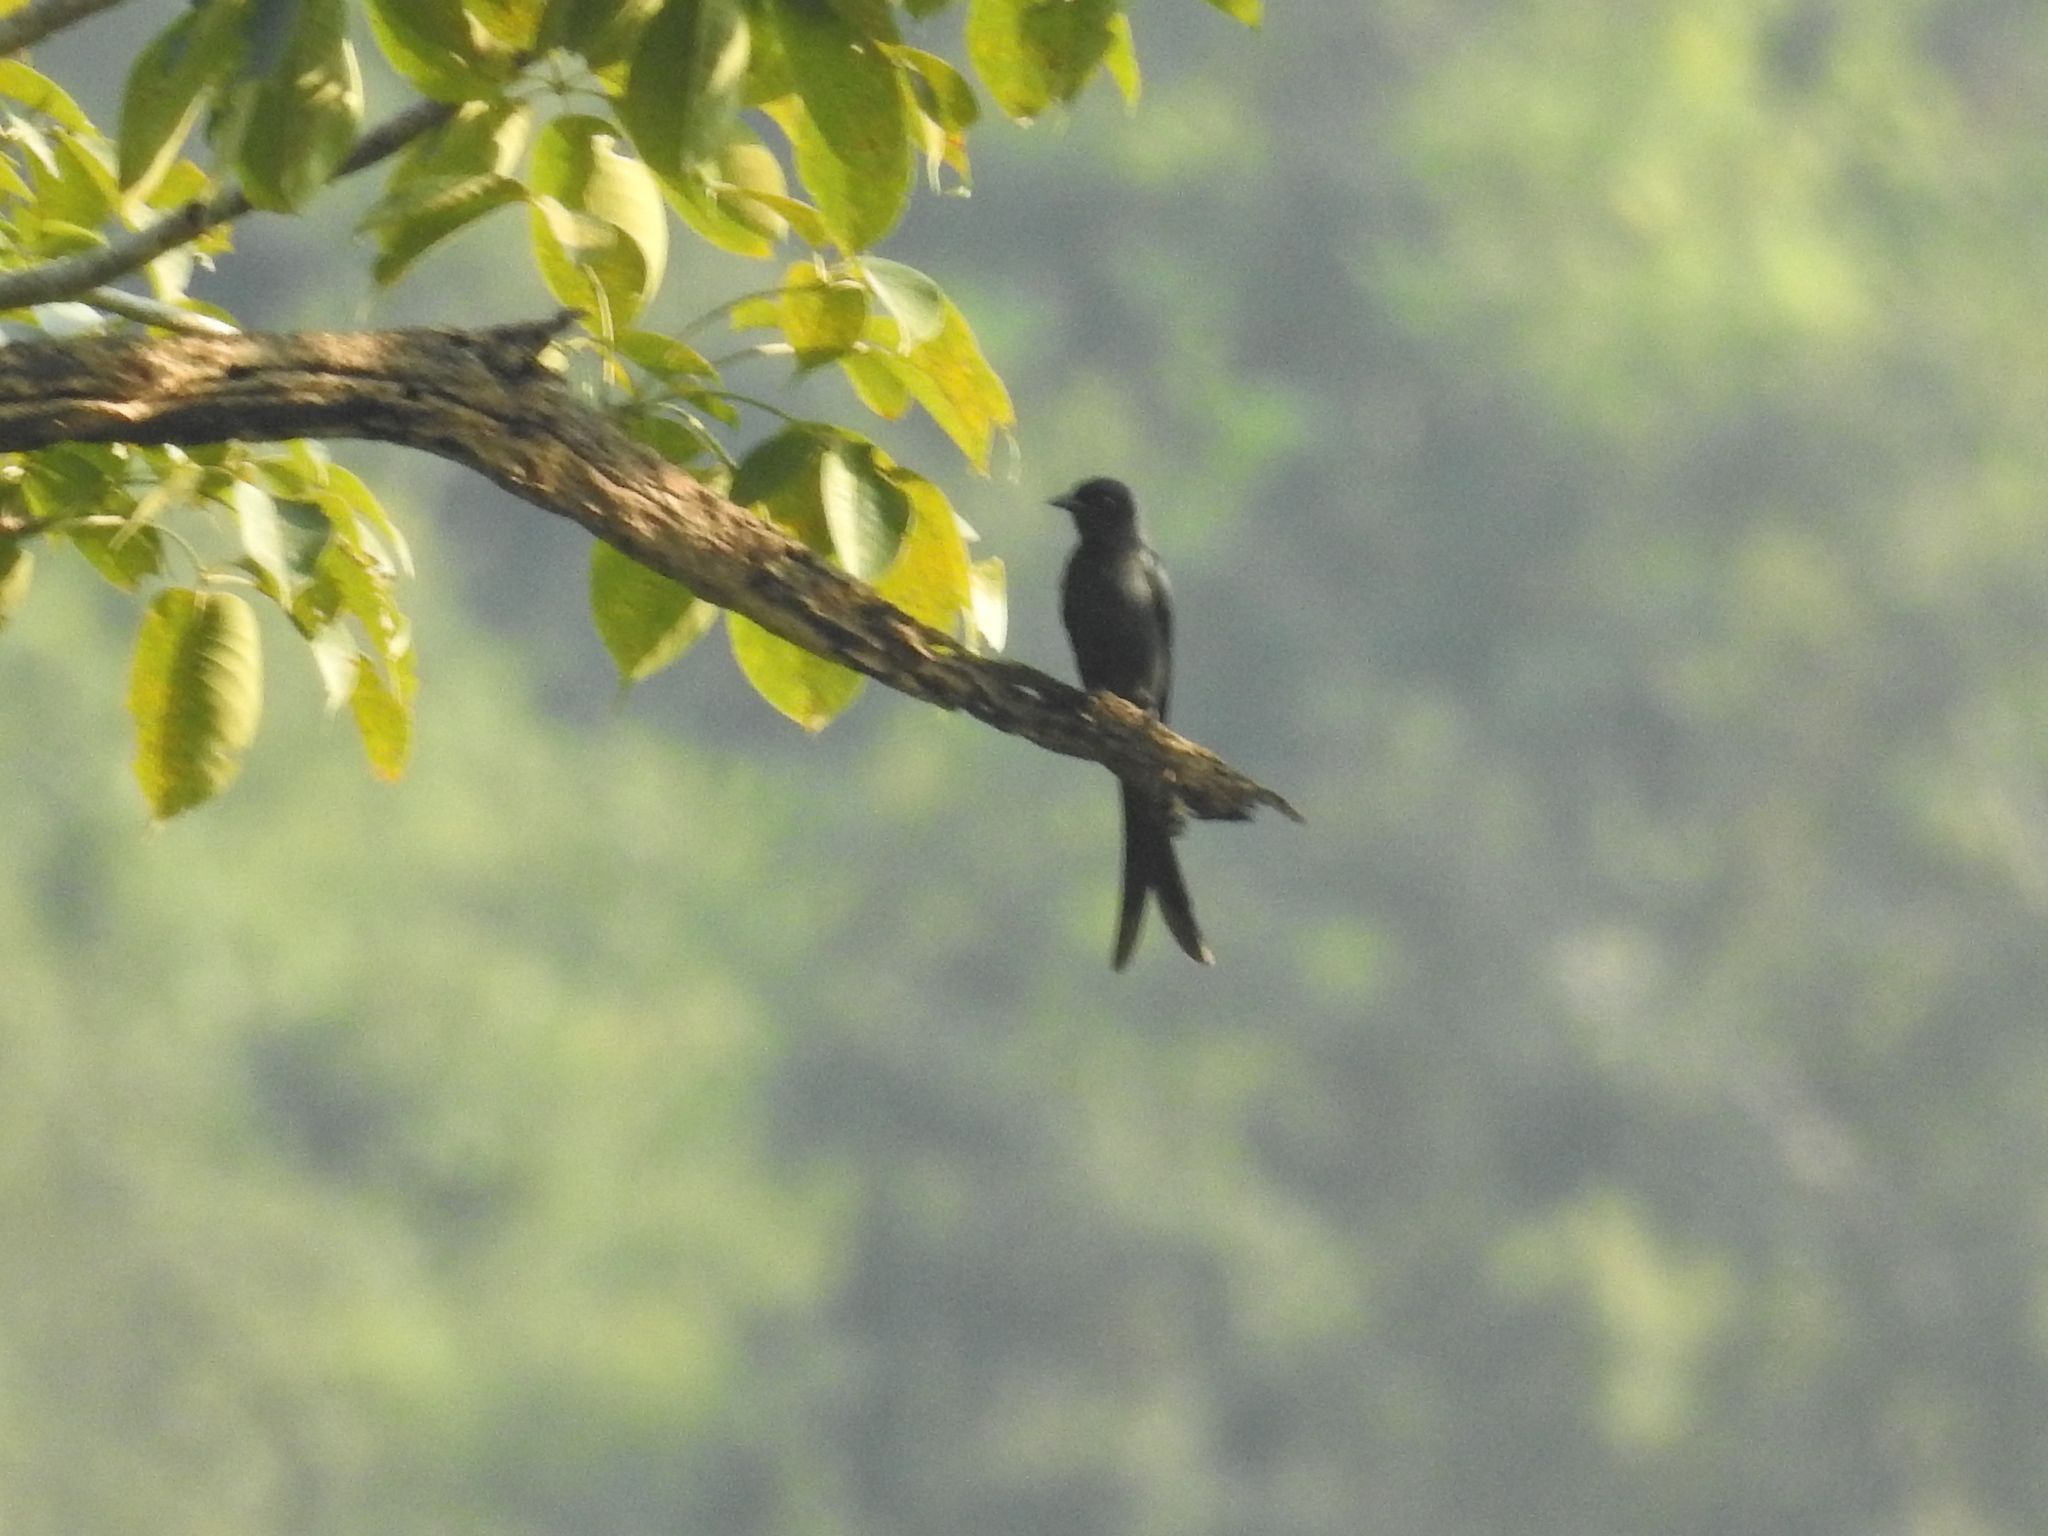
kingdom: Animalia
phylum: Chordata
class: Aves
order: Passeriformes
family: Dicruridae
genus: Dicrurus
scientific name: Dicrurus leucophaeus
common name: Ashy drongo
